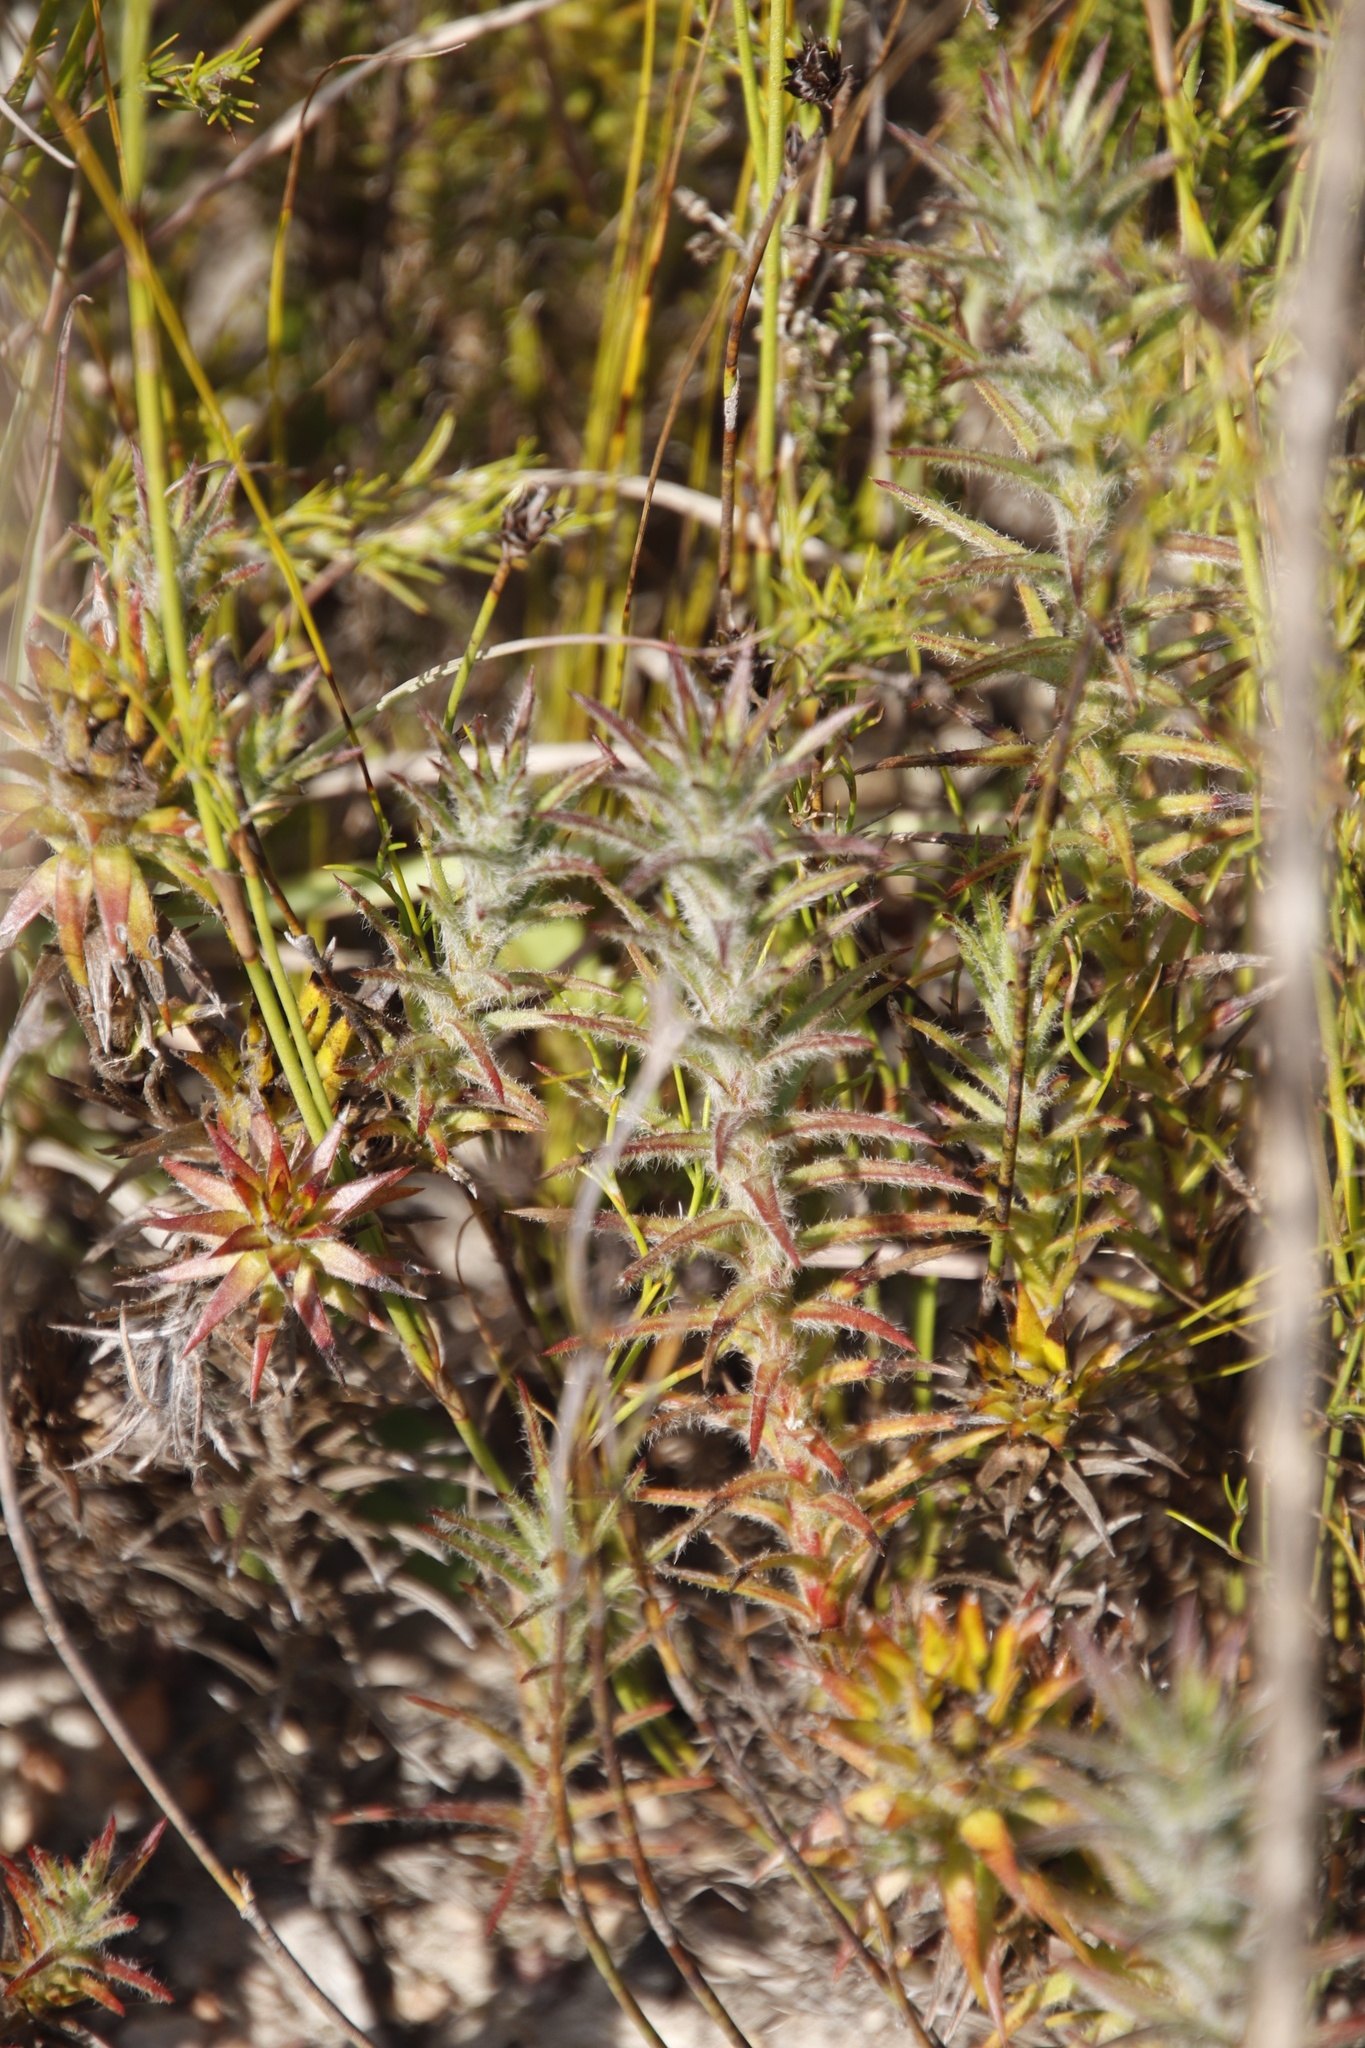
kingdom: Plantae
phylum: Tracheophyta
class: Magnoliopsida
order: Asterales
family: Asteraceae
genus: Oedera
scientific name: Oedera pungens
